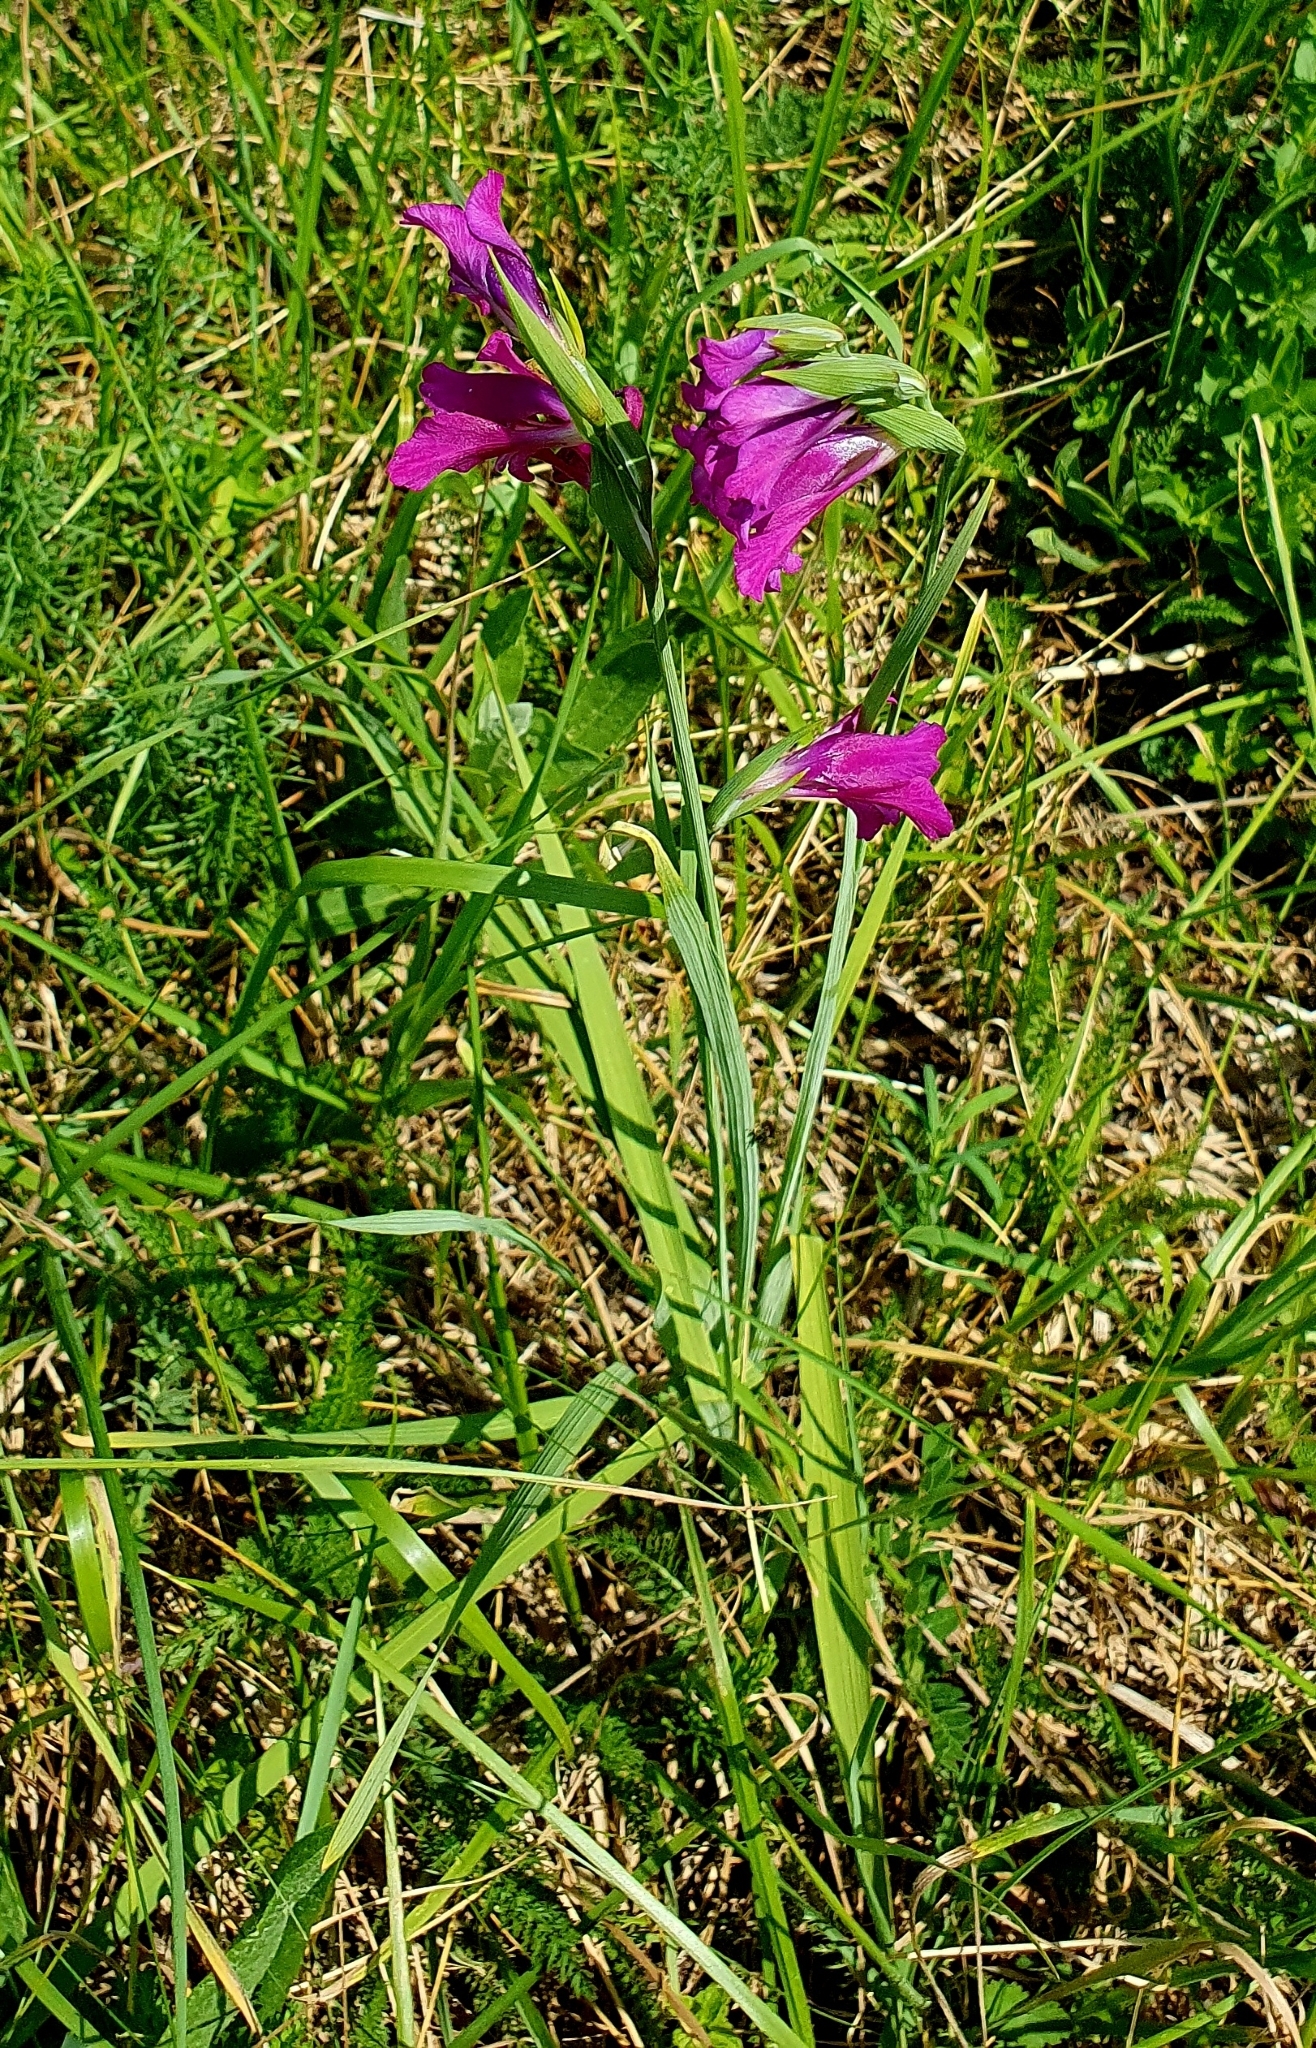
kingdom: Plantae
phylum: Tracheophyta
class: Liliopsida
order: Asparagales
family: Iridaceae
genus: Gladiolus
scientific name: Gladiolus tenuis
